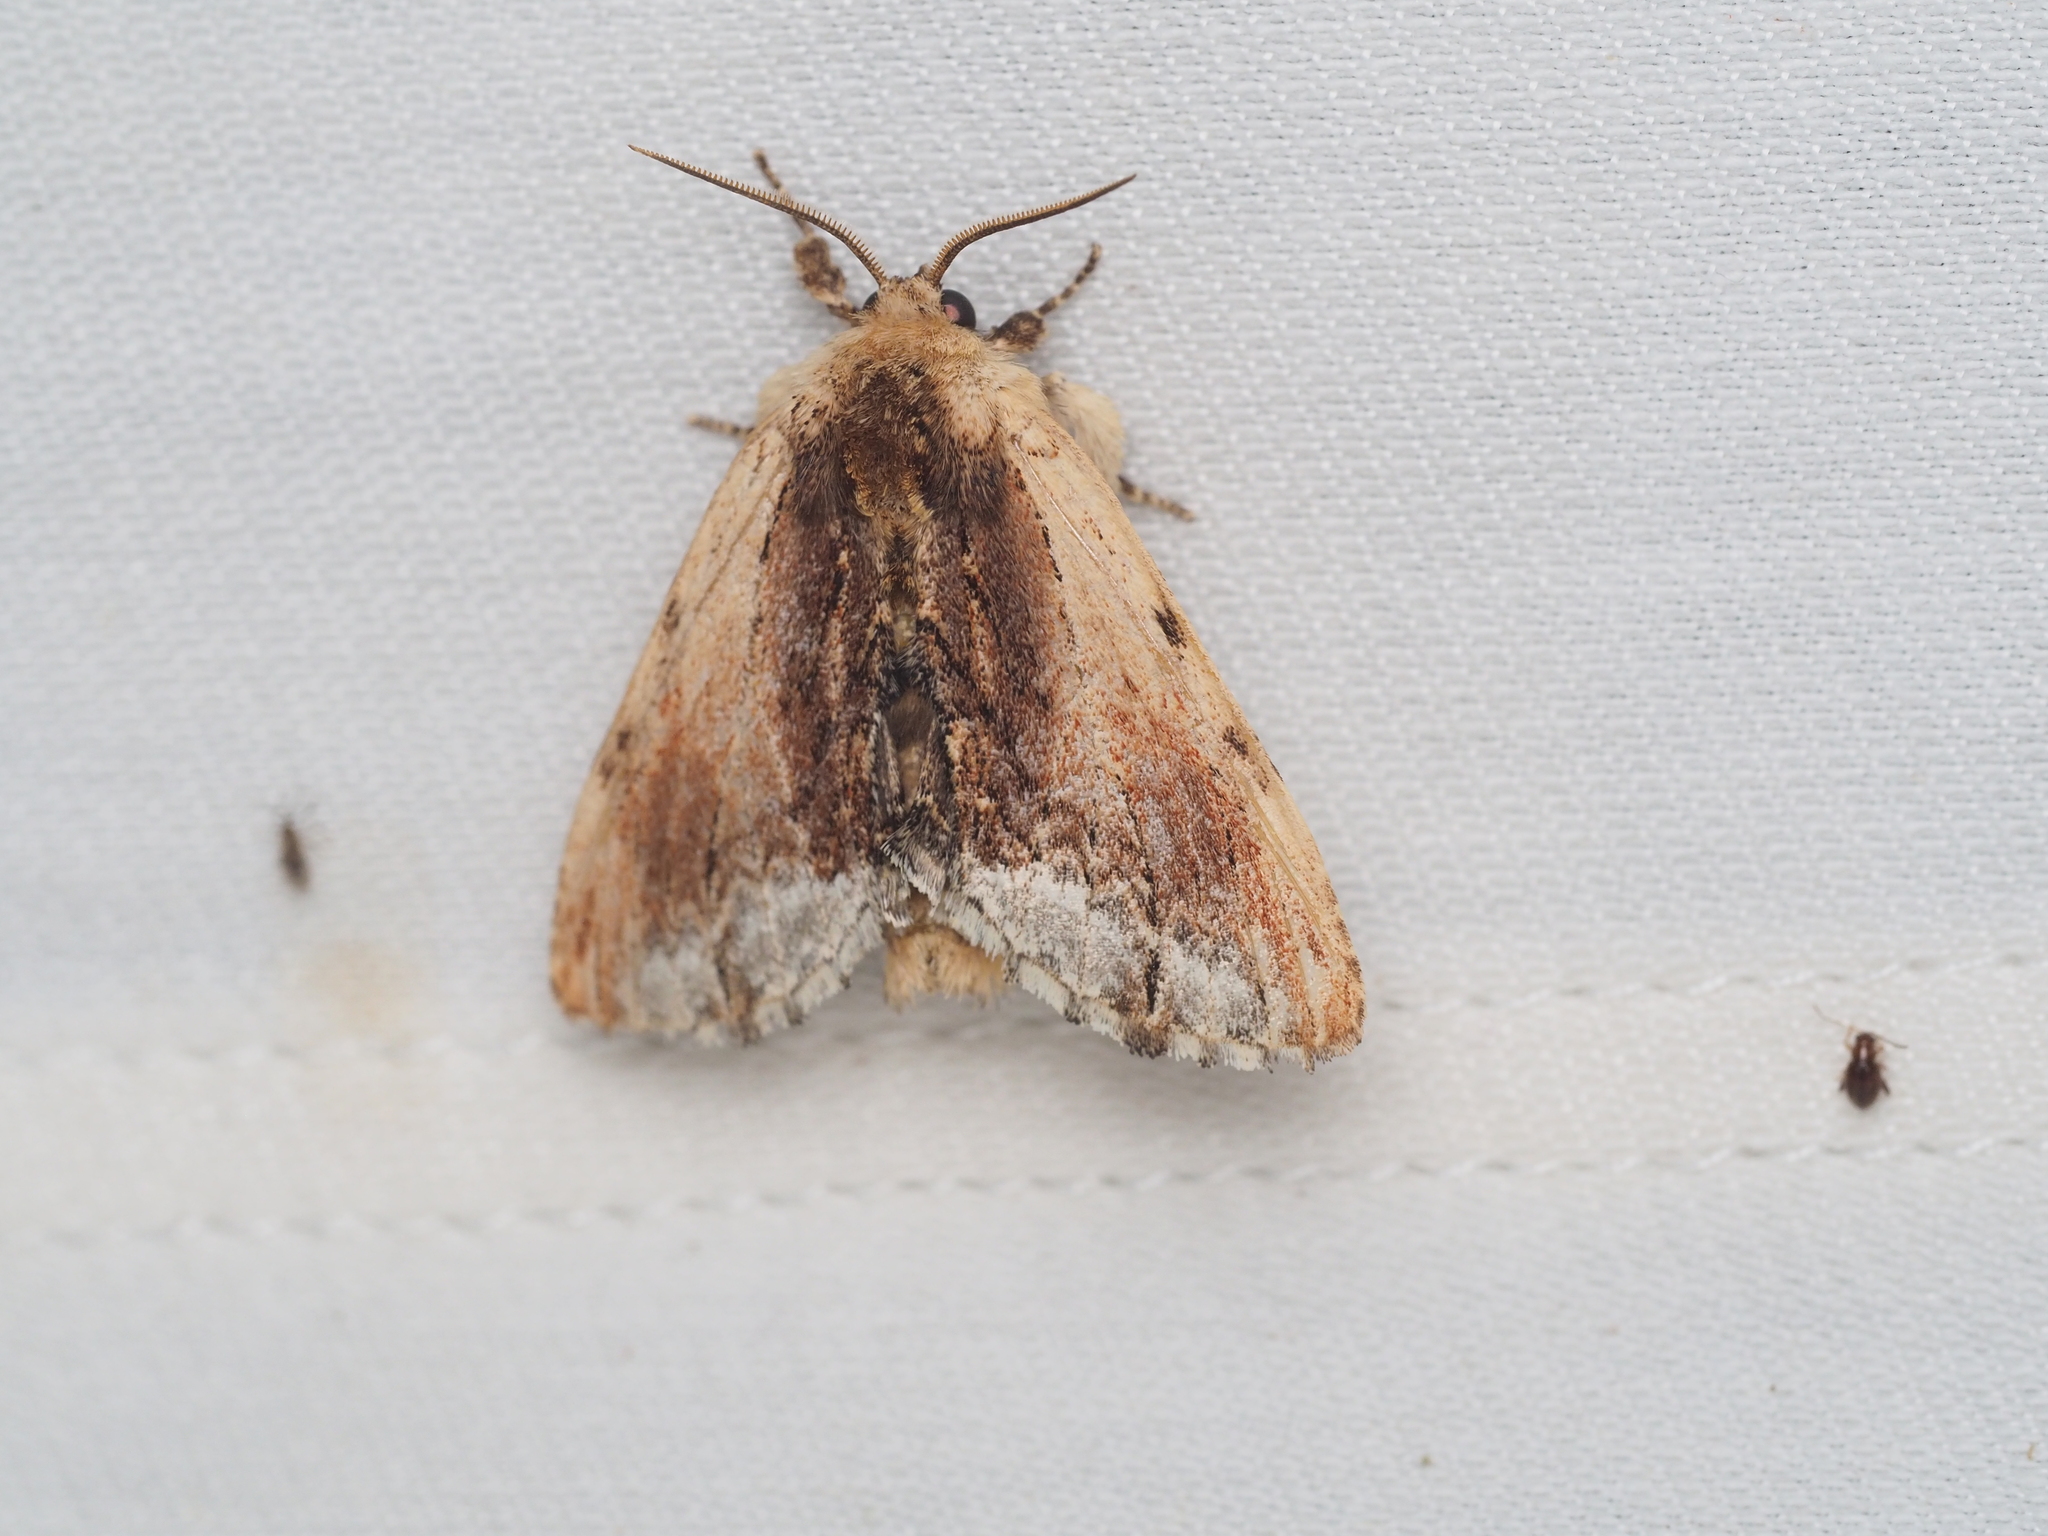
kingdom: Animalia
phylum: Arthropoda
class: Insecta
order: Lepidoptera
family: Notodontidae
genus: Ptilodon
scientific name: Ptilodon cucullina
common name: Maple prominent
